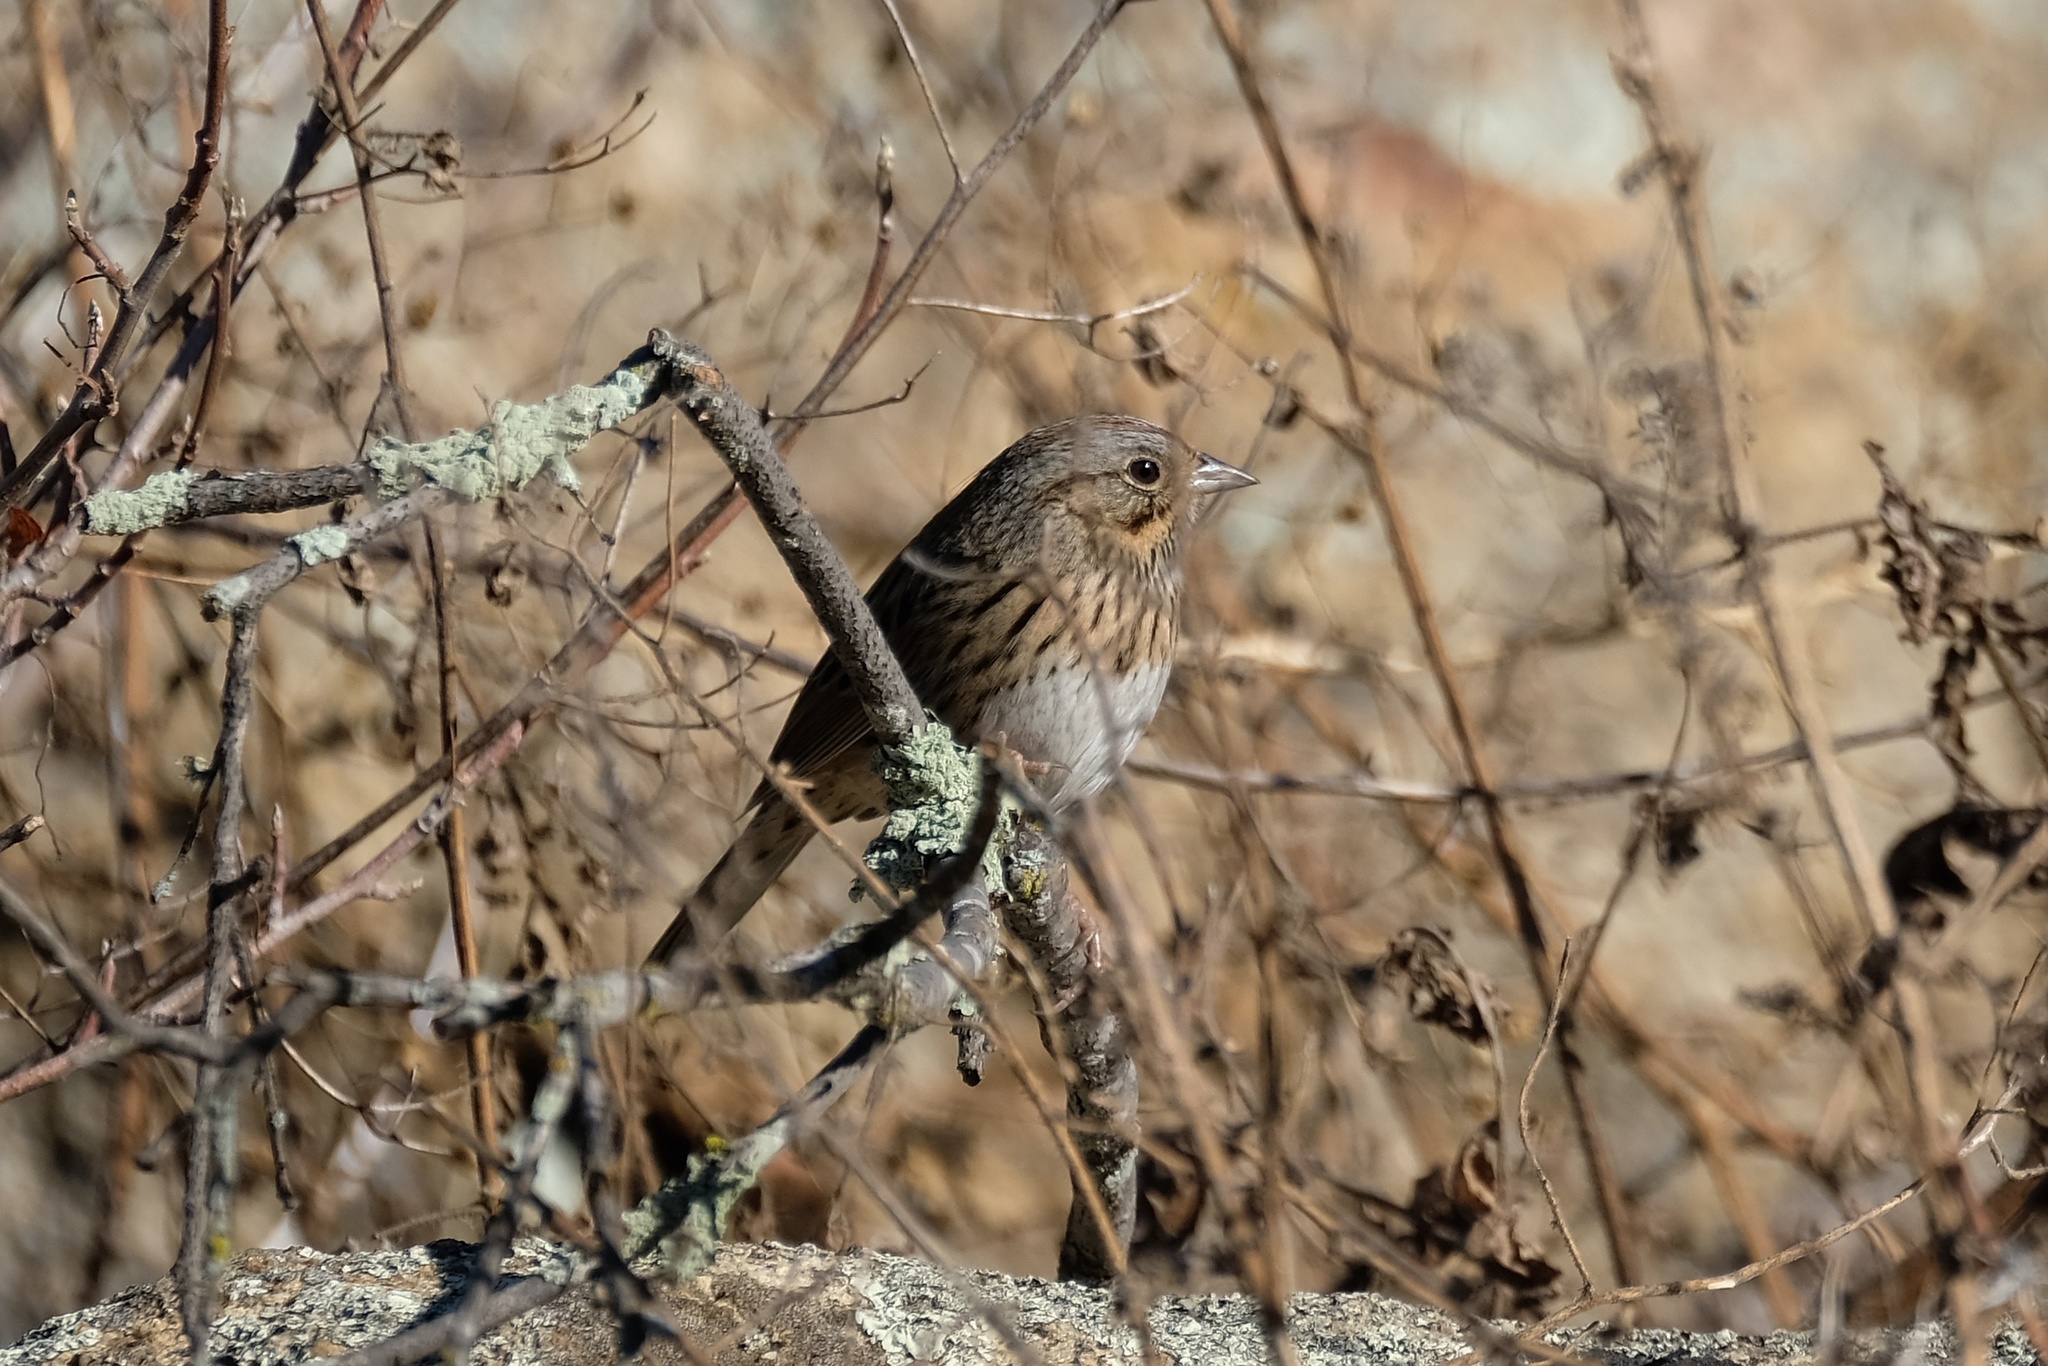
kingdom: Animalia
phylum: Chordata
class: Aves
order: Passeriformes
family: Passerellidae
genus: Melospiza
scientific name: Melospiza lincolnii
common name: Lincoln's sparrow
